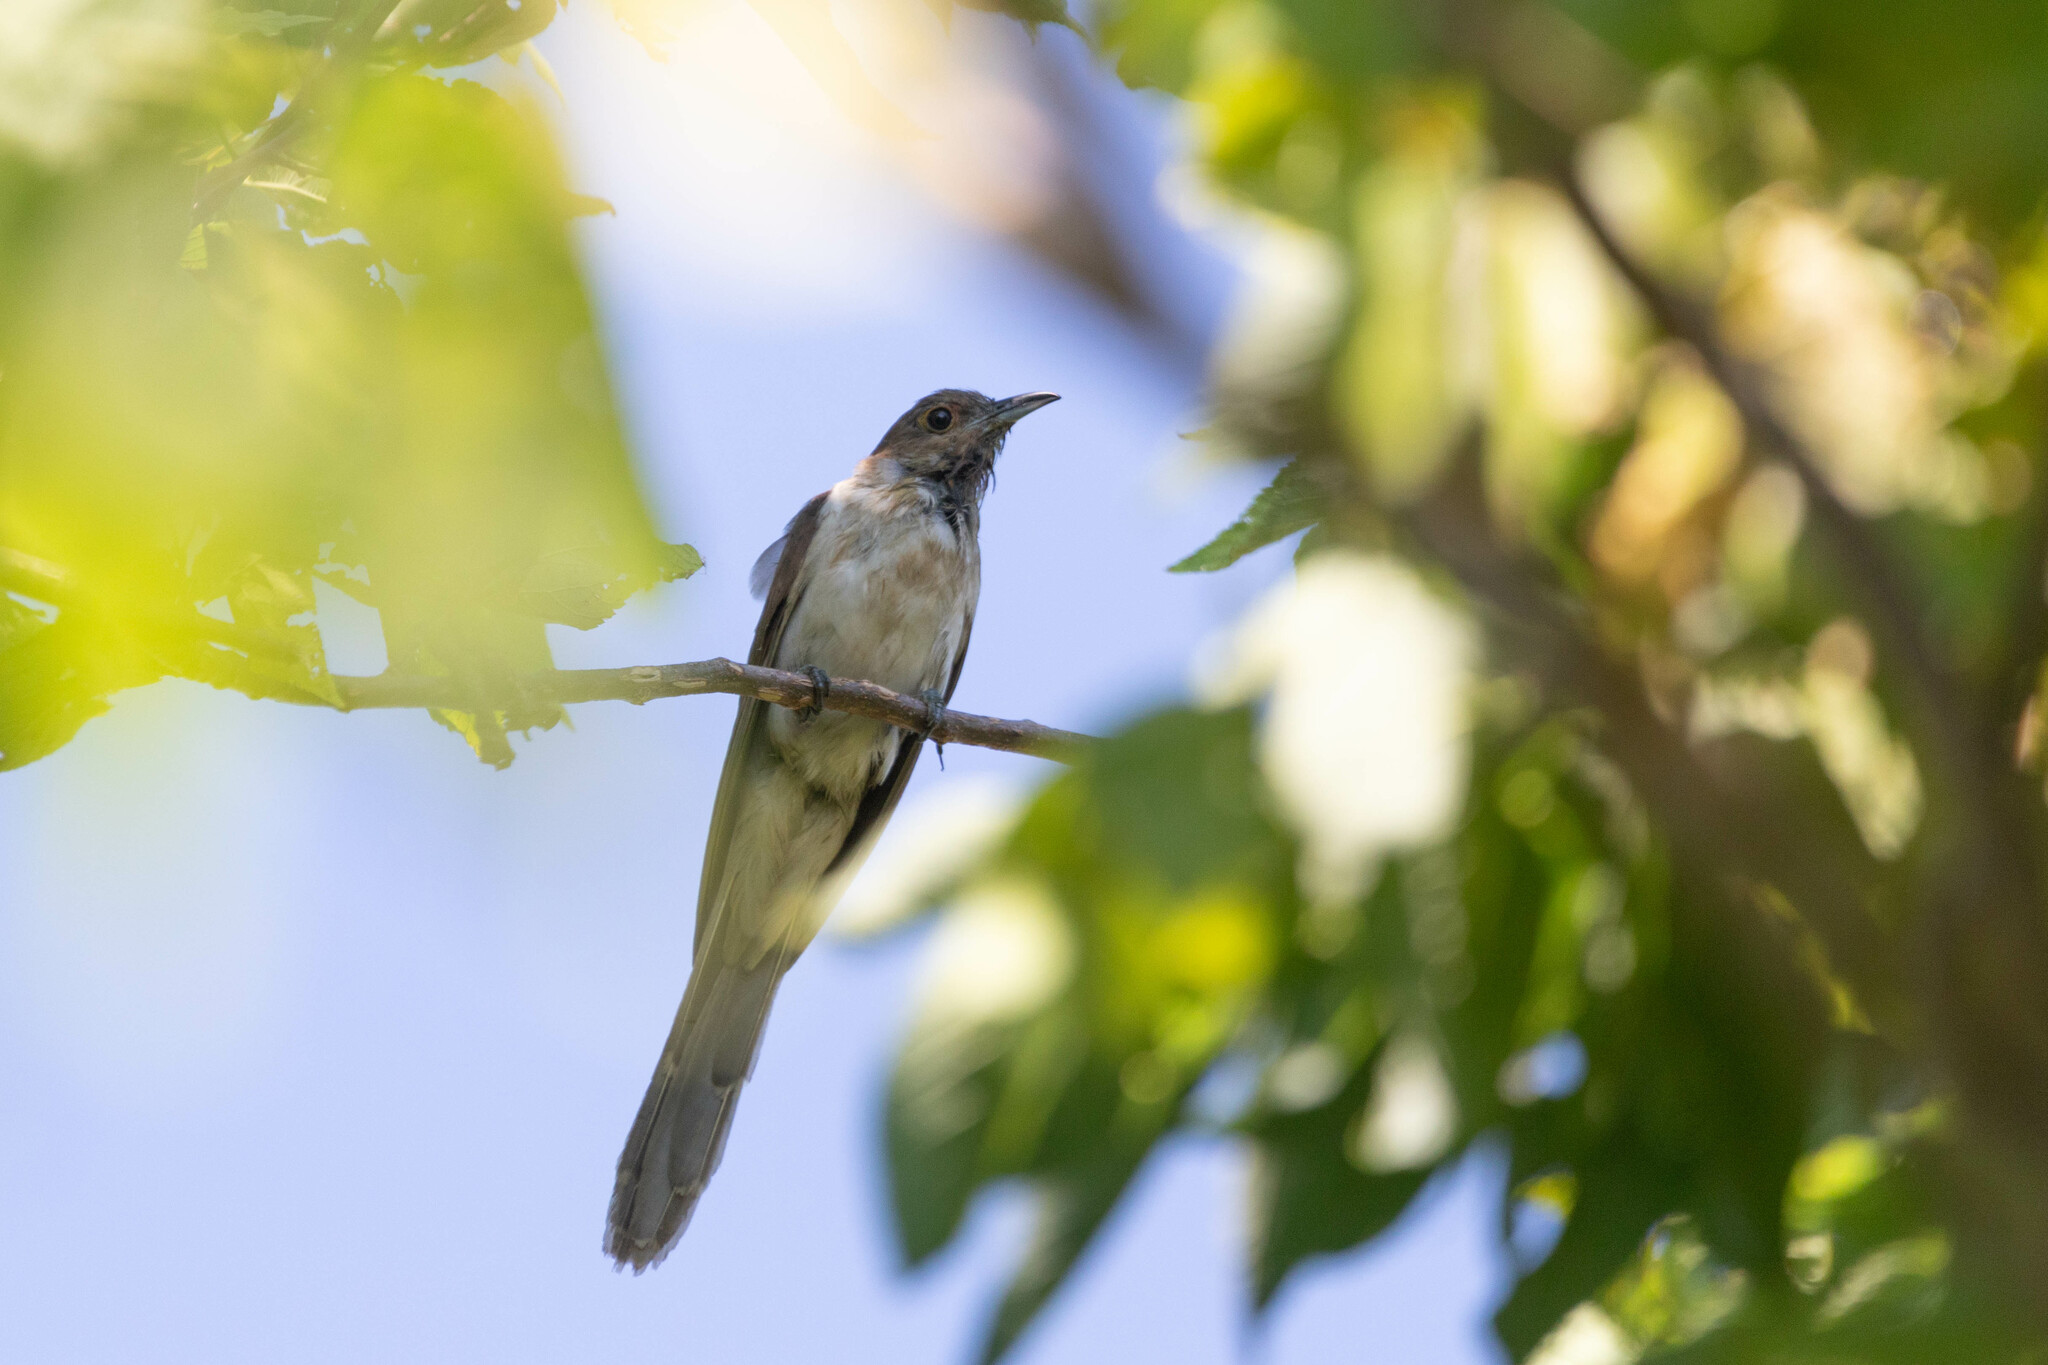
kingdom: Animalia
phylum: Chordata
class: Aves
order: Cuculiformes
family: Cuculidae
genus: Coccyzus
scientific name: Coccyzus erythropthalmus
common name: Black-billed cuckoo
